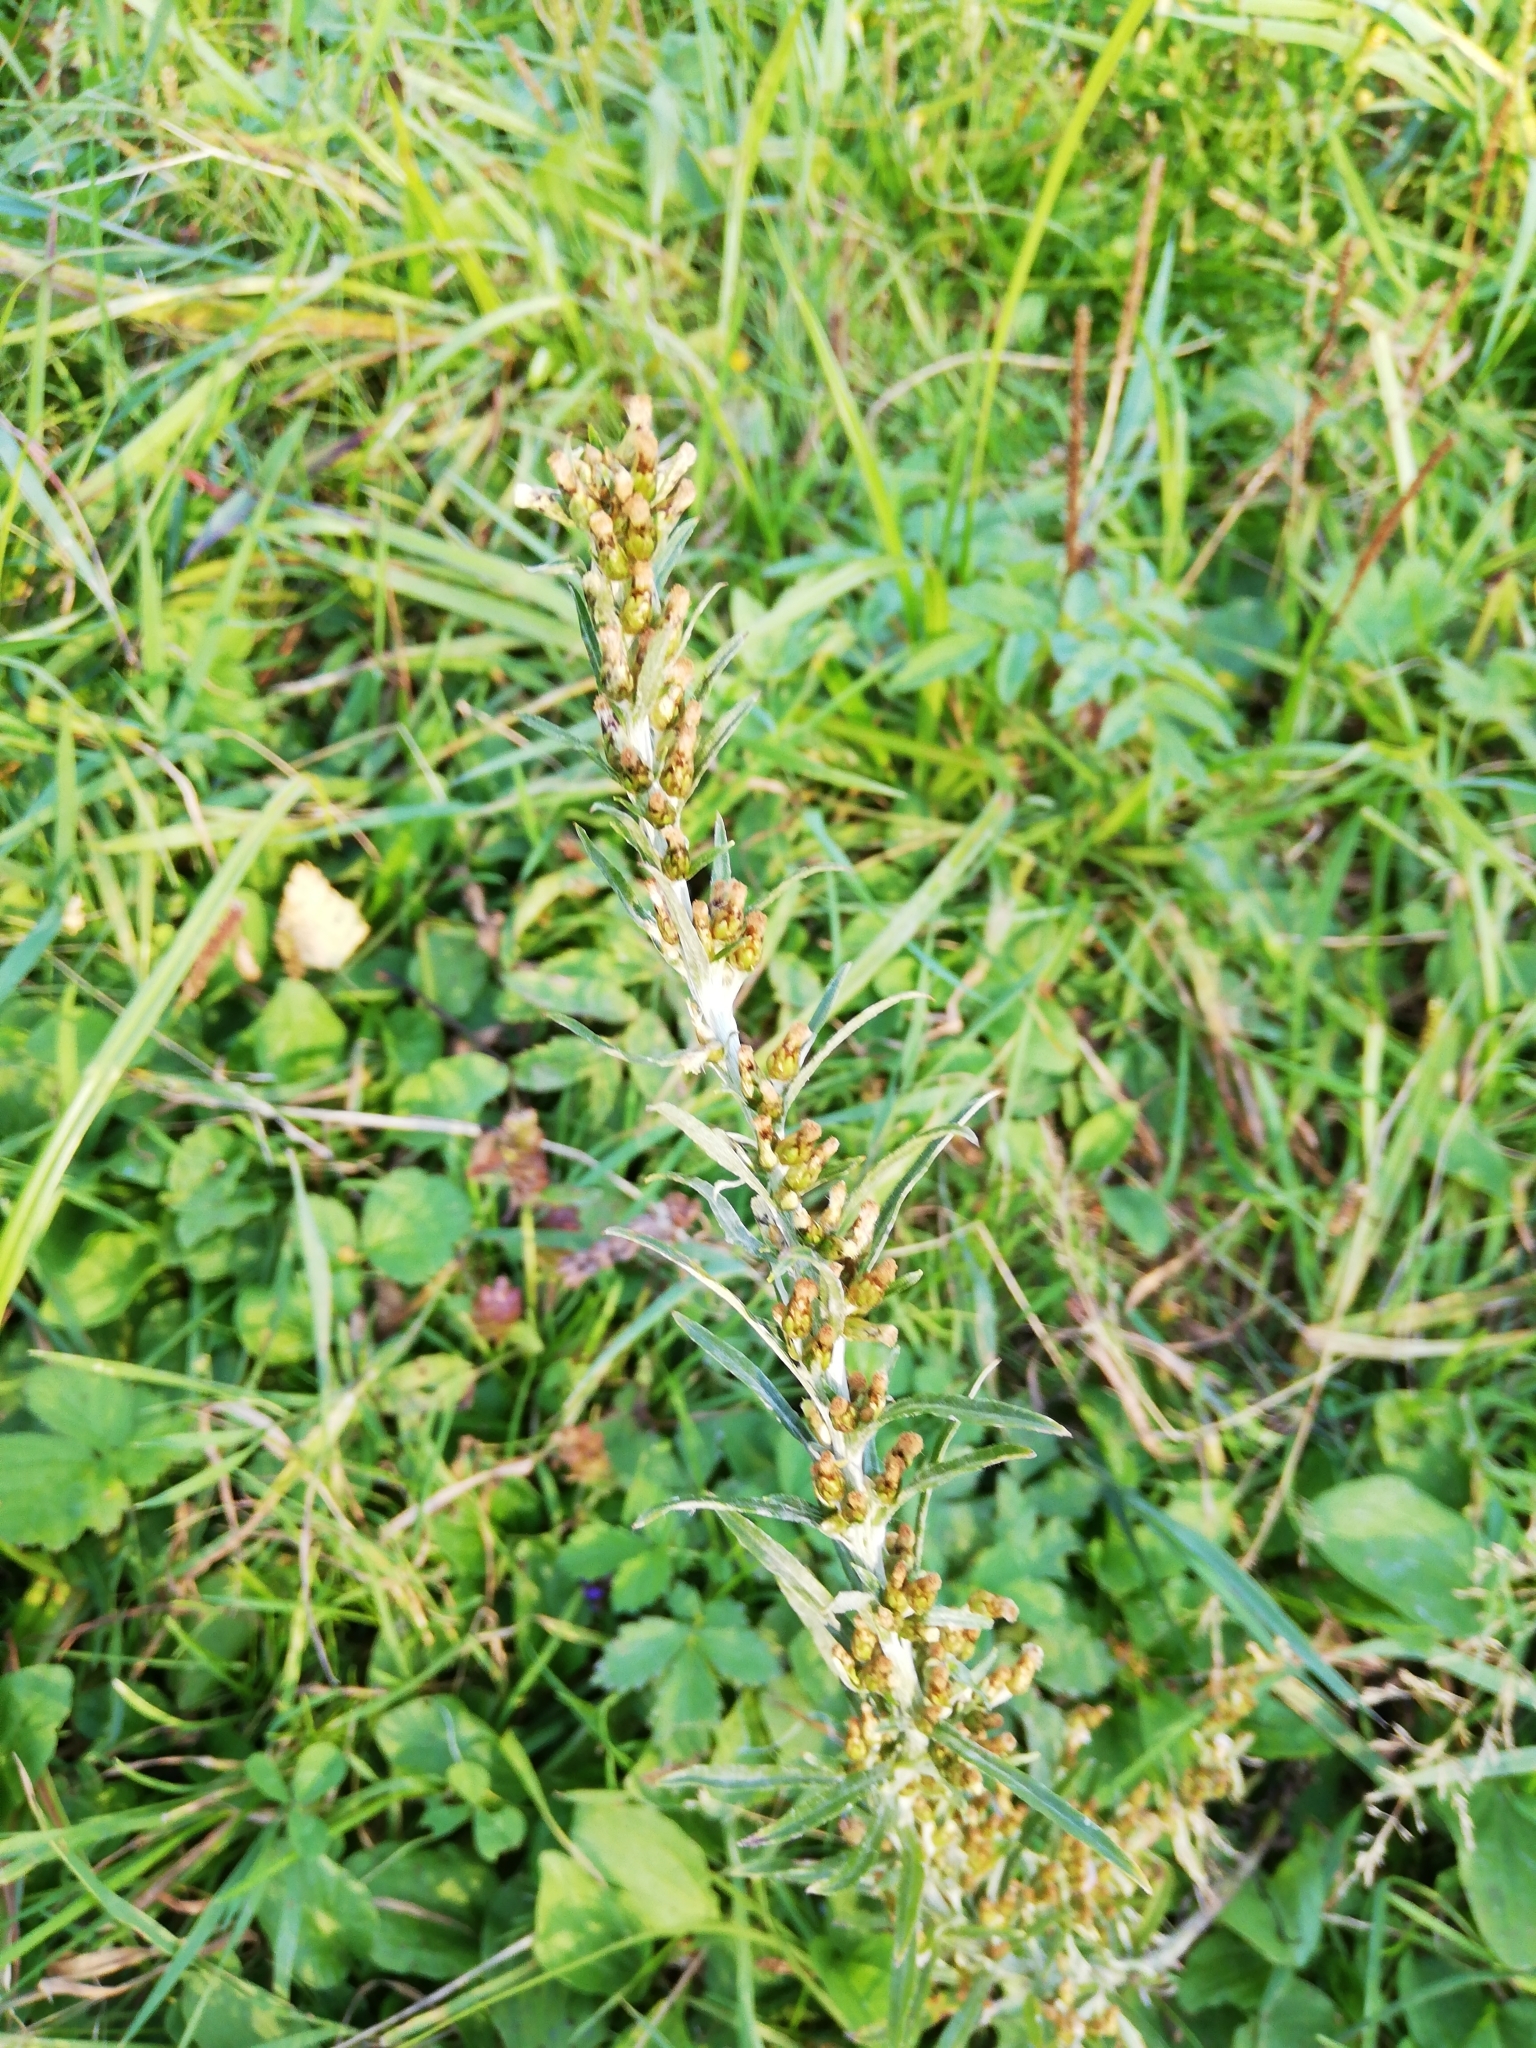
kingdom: Plantae
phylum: Tracheophyta
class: Magnoliopsida
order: Asterales
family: Asteraceae
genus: Omalotheca
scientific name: Omalotheca sylvatica
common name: Heath cudweed
